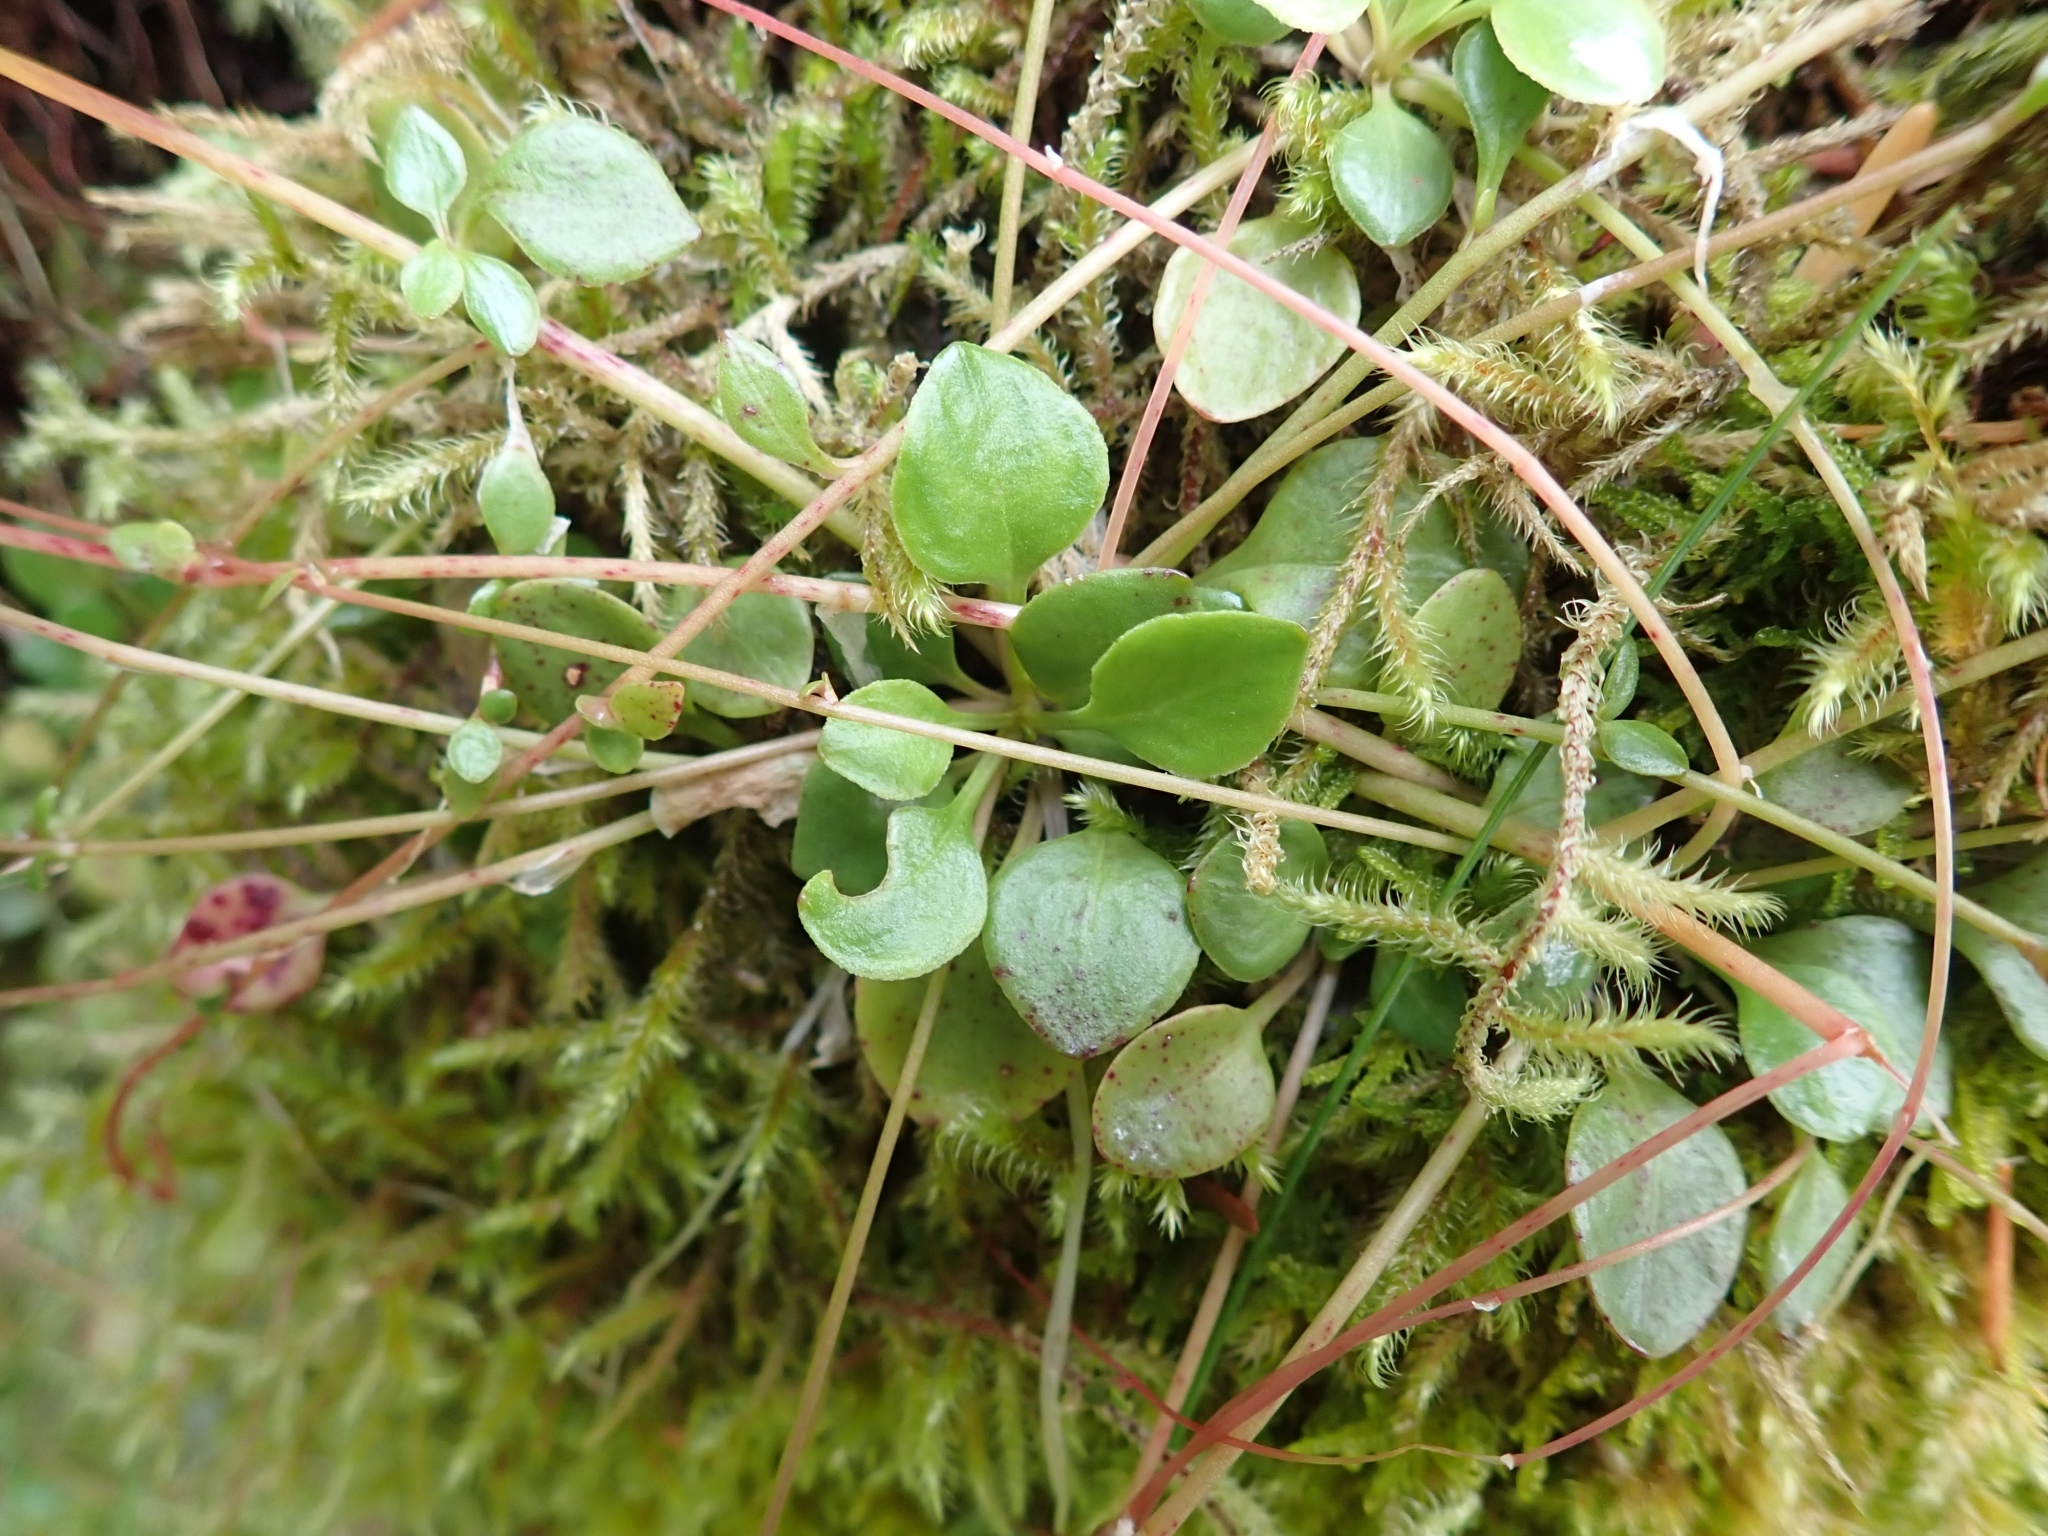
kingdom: Plantae
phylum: Tracheophyta
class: Magnoliopsida
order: Caryophyllales
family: Montiaceae
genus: Montia
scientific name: Montia parvifolia
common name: Small-leaved blinks
